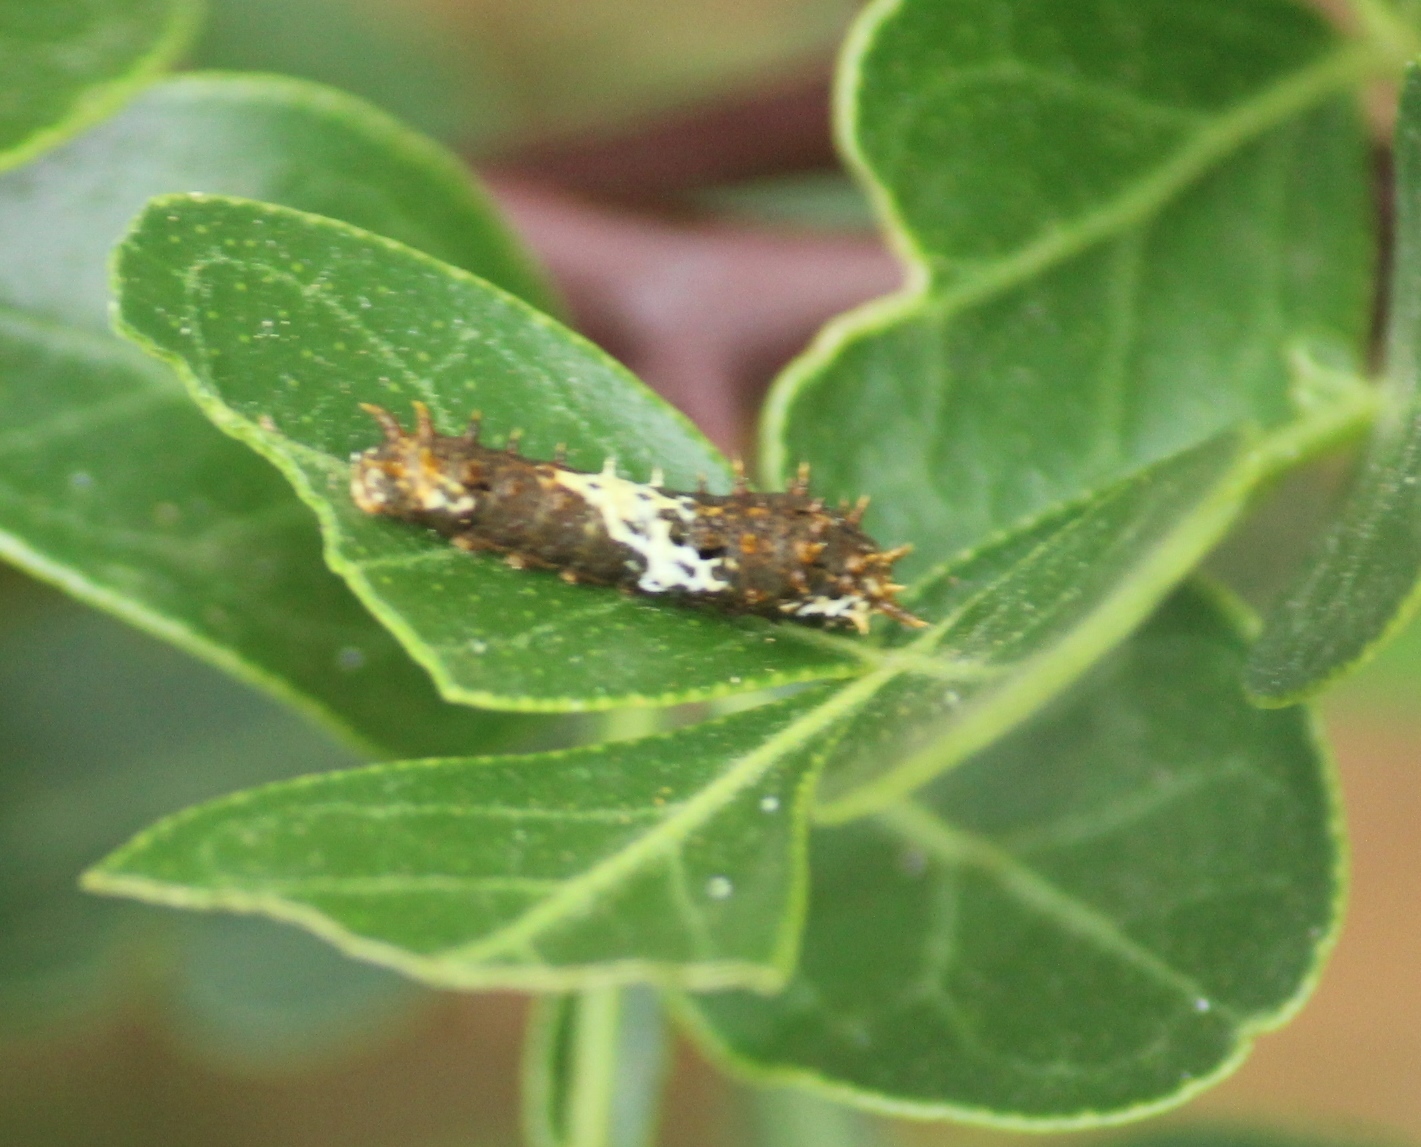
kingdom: Animalia
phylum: Arthropoda
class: Insecta
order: Lepidoptera
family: Papilionidae
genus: Papilio
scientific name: Papilio demoleus
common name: Lime butterfly
